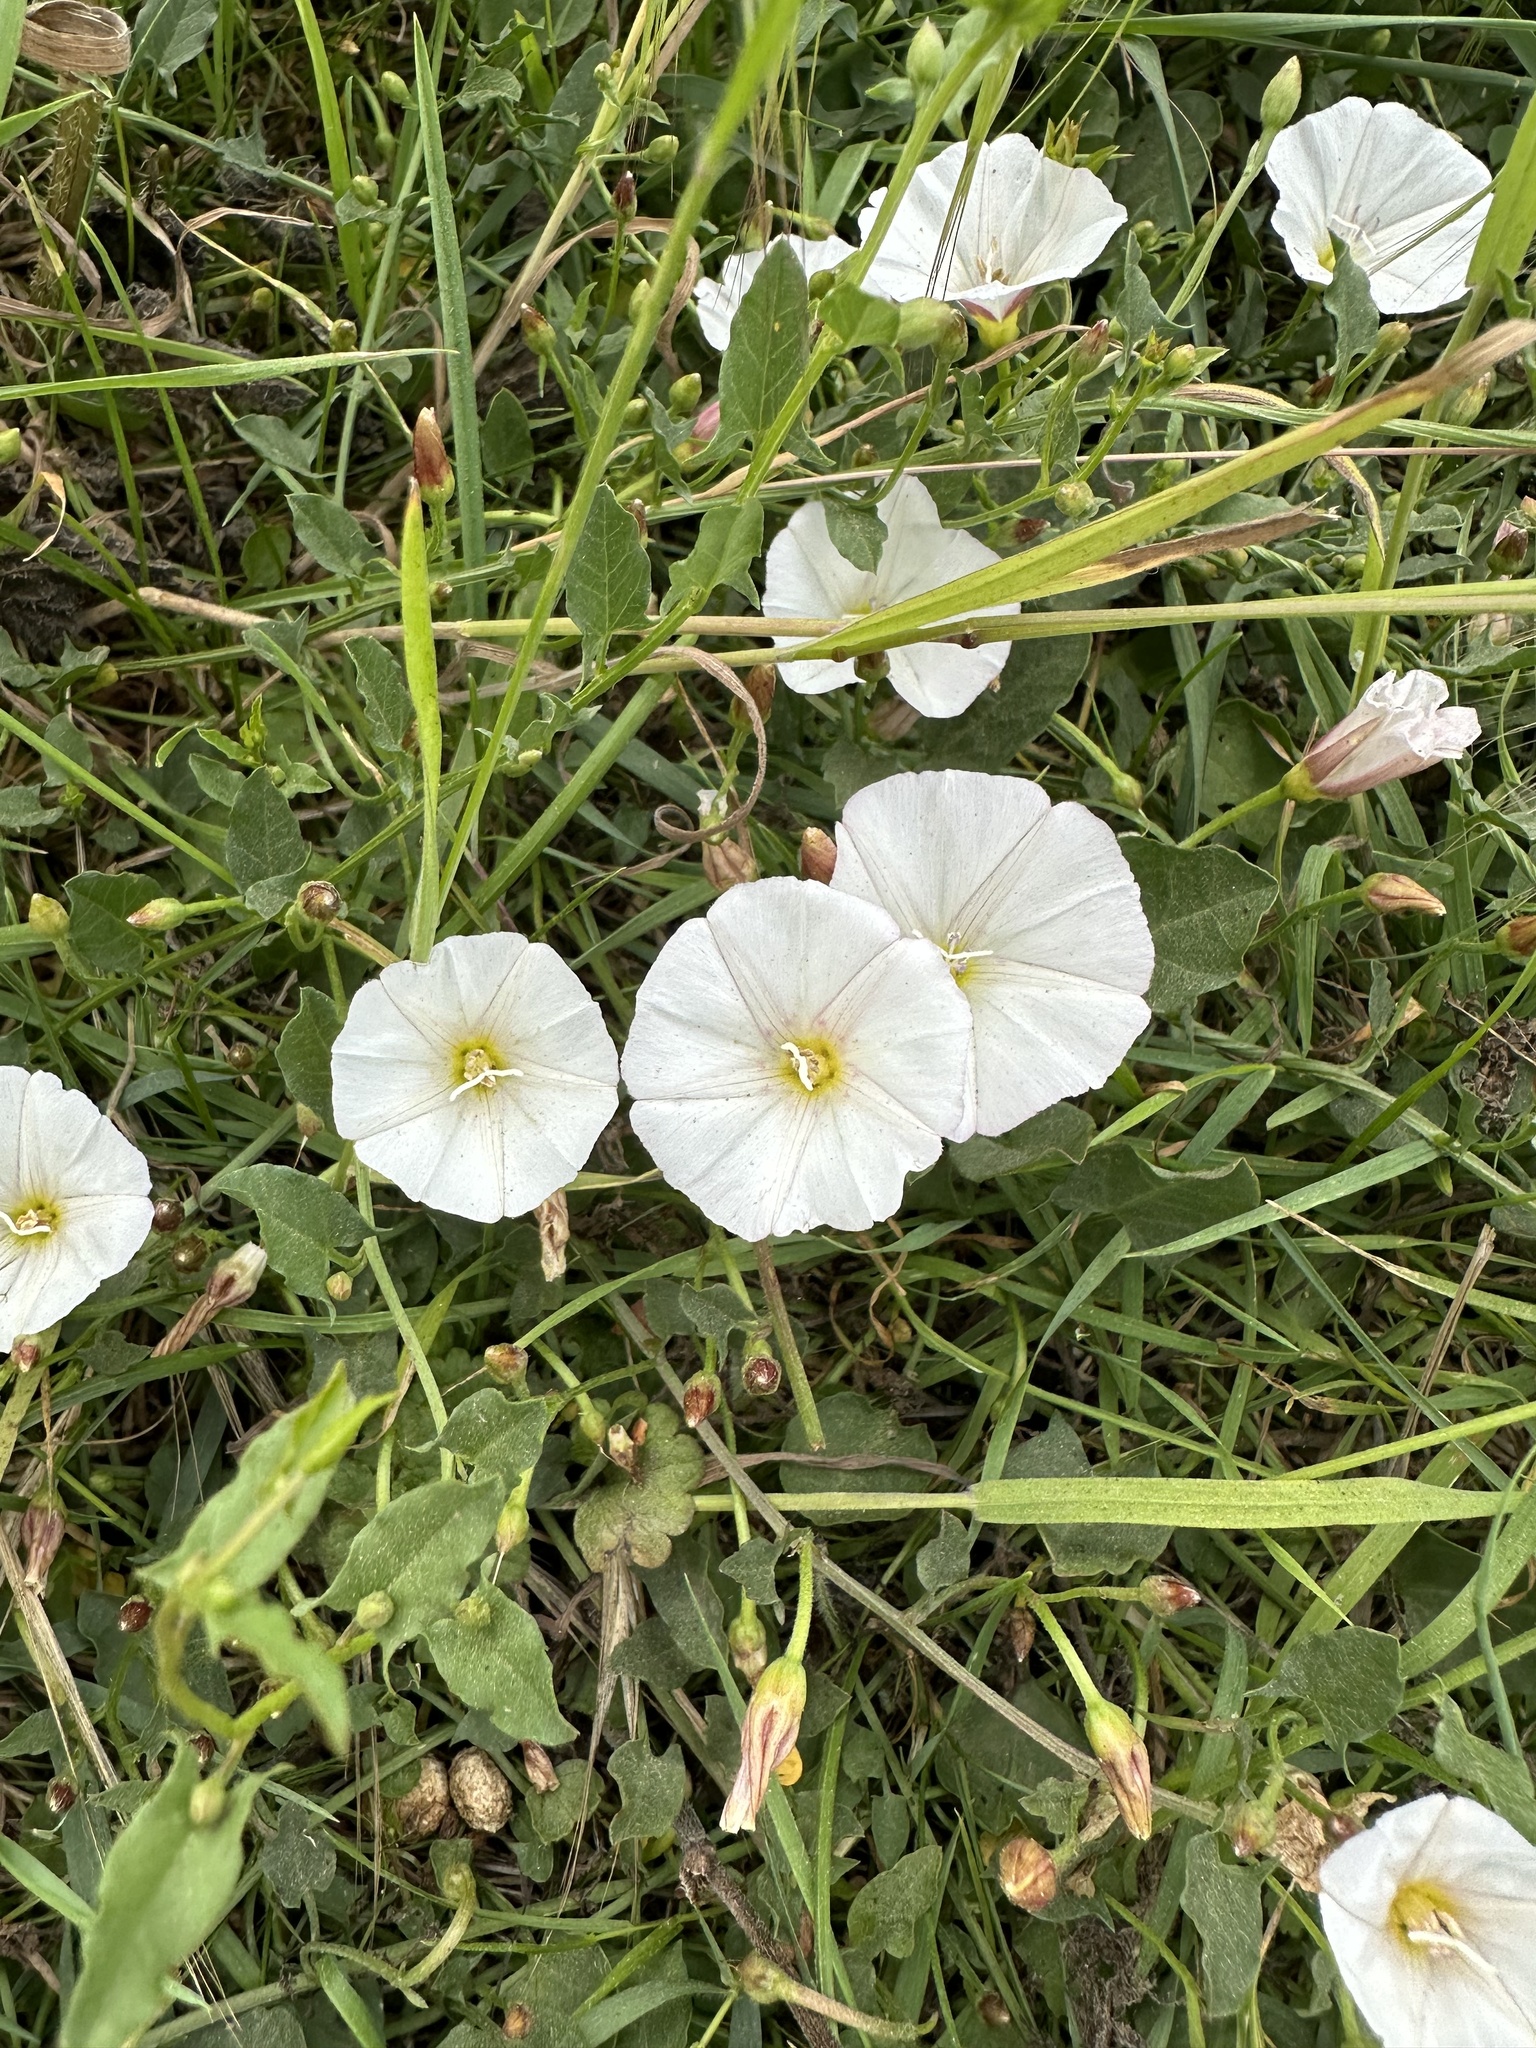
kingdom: Plantae
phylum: Tracheophyta
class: Magnoliopsida
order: Solanales
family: Convolvulaceae
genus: Convolvulus
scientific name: Convolvulus arvensis
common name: Field bindweed
